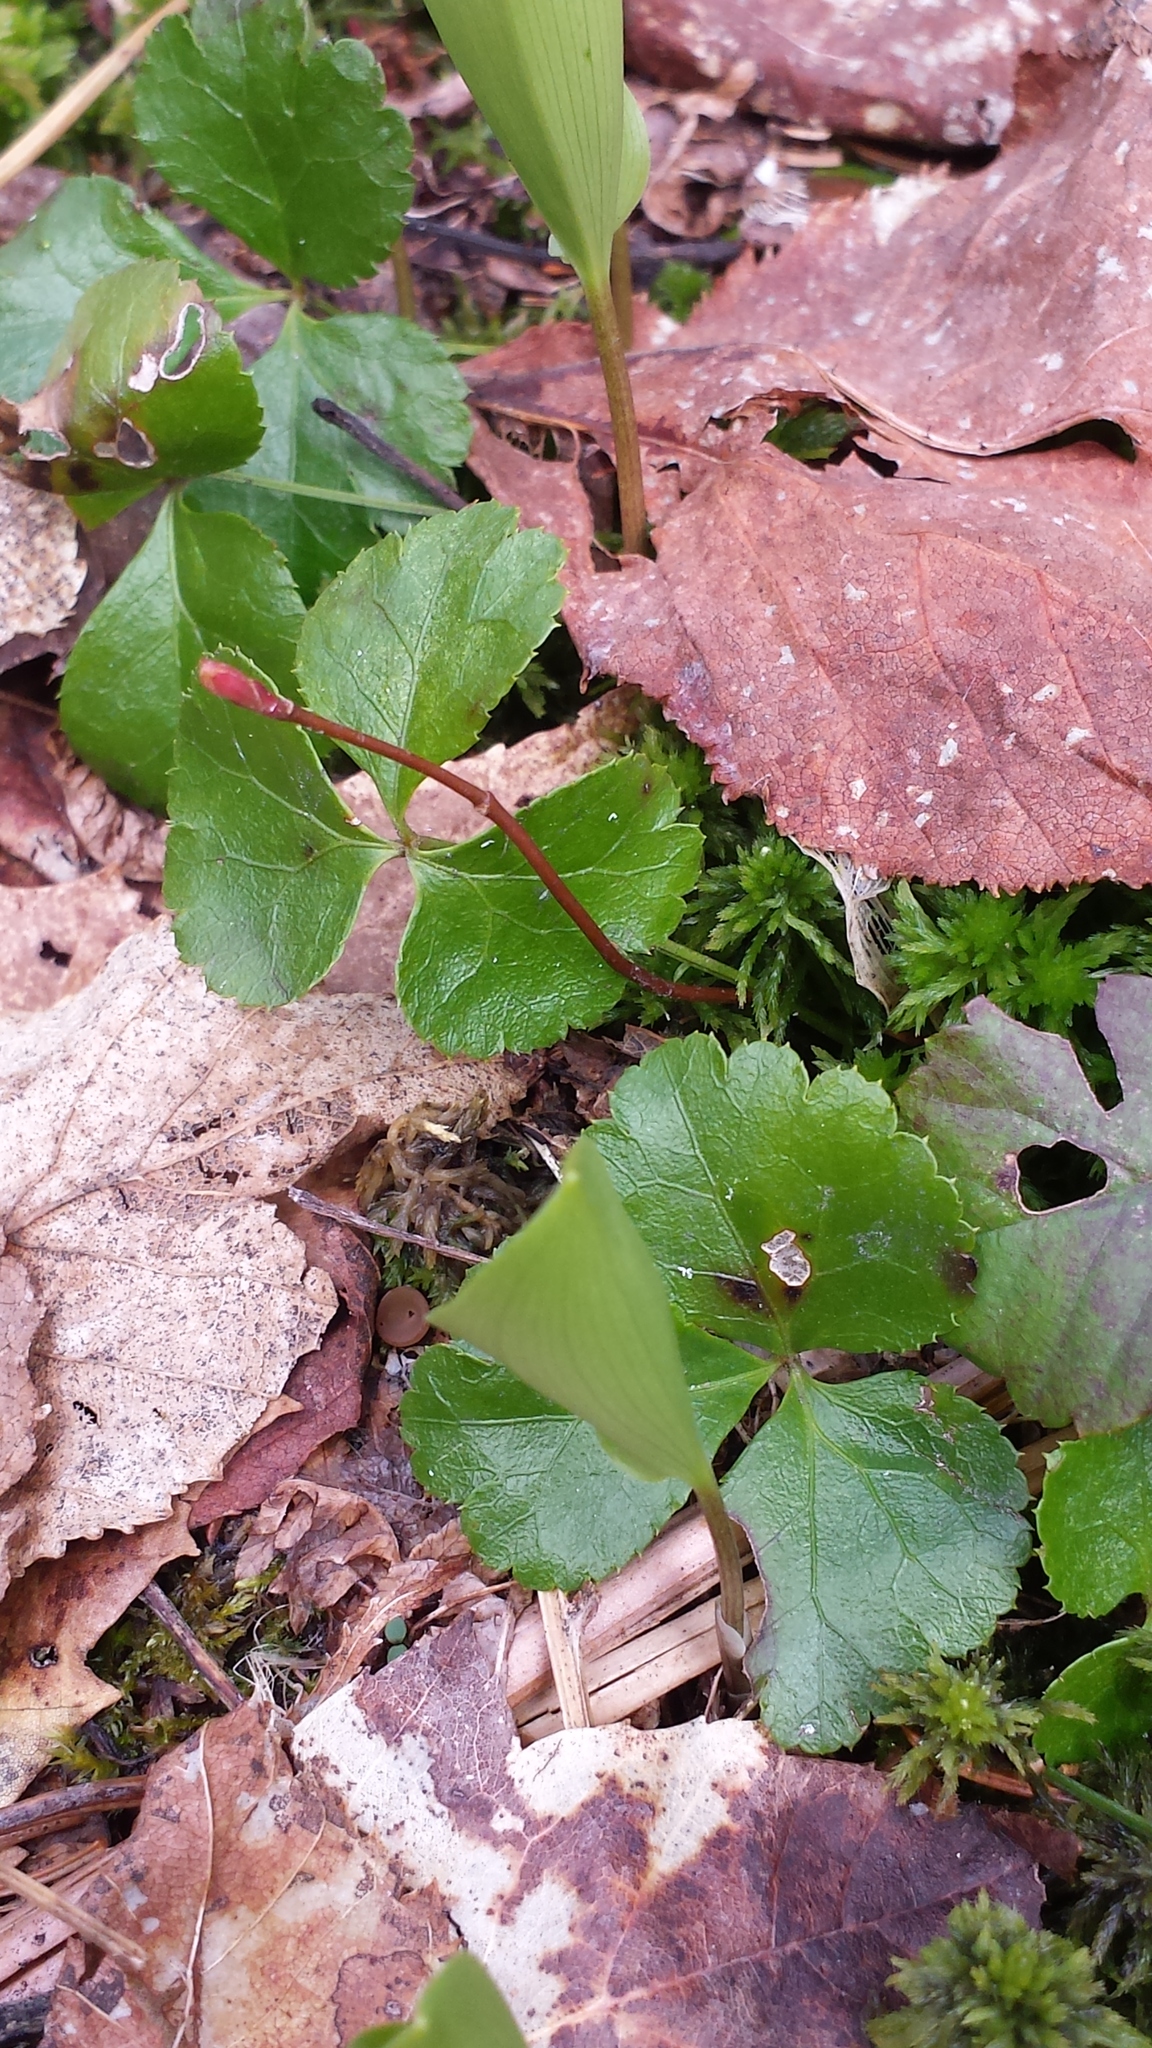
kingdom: Plantae
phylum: Tracheophyta
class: Magnoliopsida
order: Ranunculales
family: Ranunculaceae
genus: Coptis
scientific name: Coptis trifolia
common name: Canker-root
